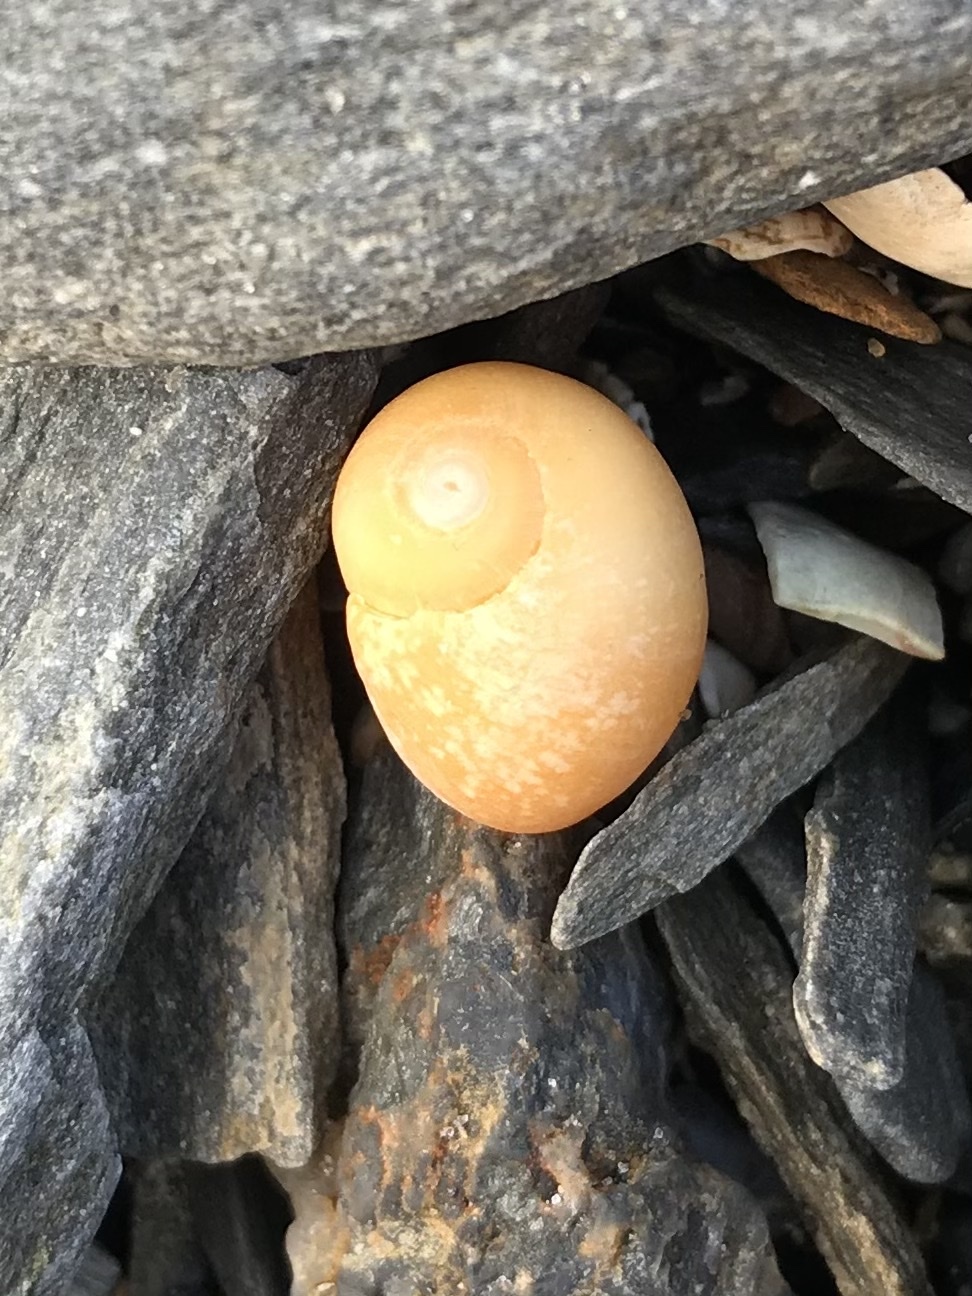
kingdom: Animalia
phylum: Mollusca
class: Gastropoda
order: Littorinimorpha
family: Littorinidae
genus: Littorina
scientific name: Littorina obtusata
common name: Flat periwinkle
